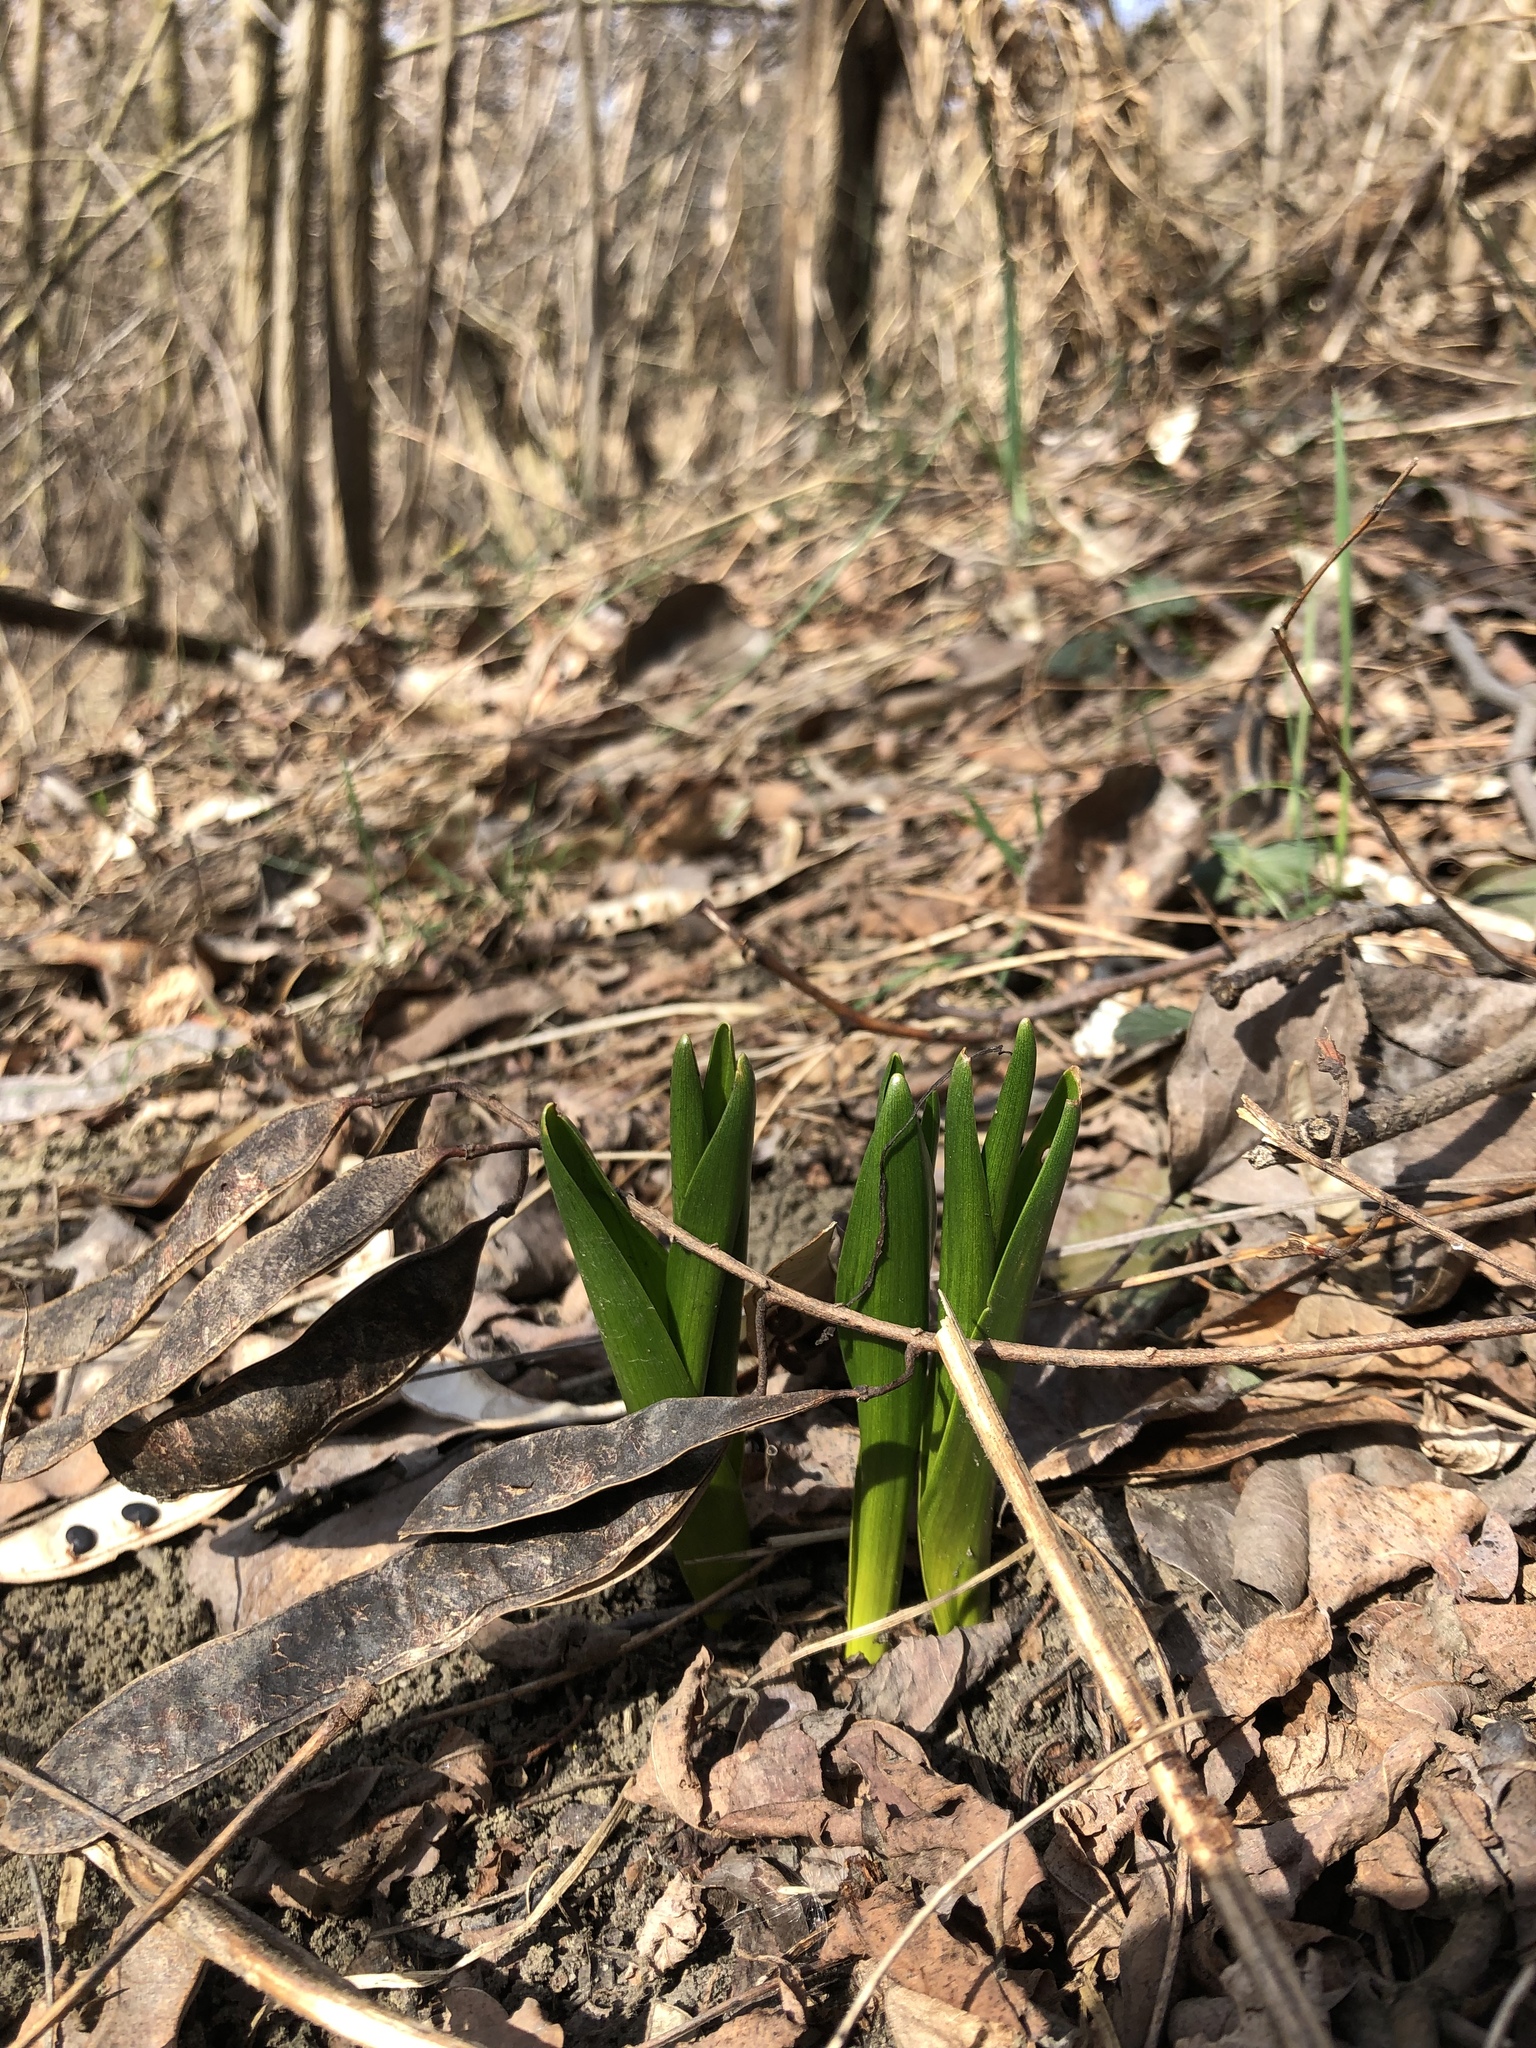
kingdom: Plantae
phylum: Tracheophyta
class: Liliopsida
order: Liliales
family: Colchicaceae
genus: Colchicum
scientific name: Colchicum autumnale
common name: Autumn crocus
